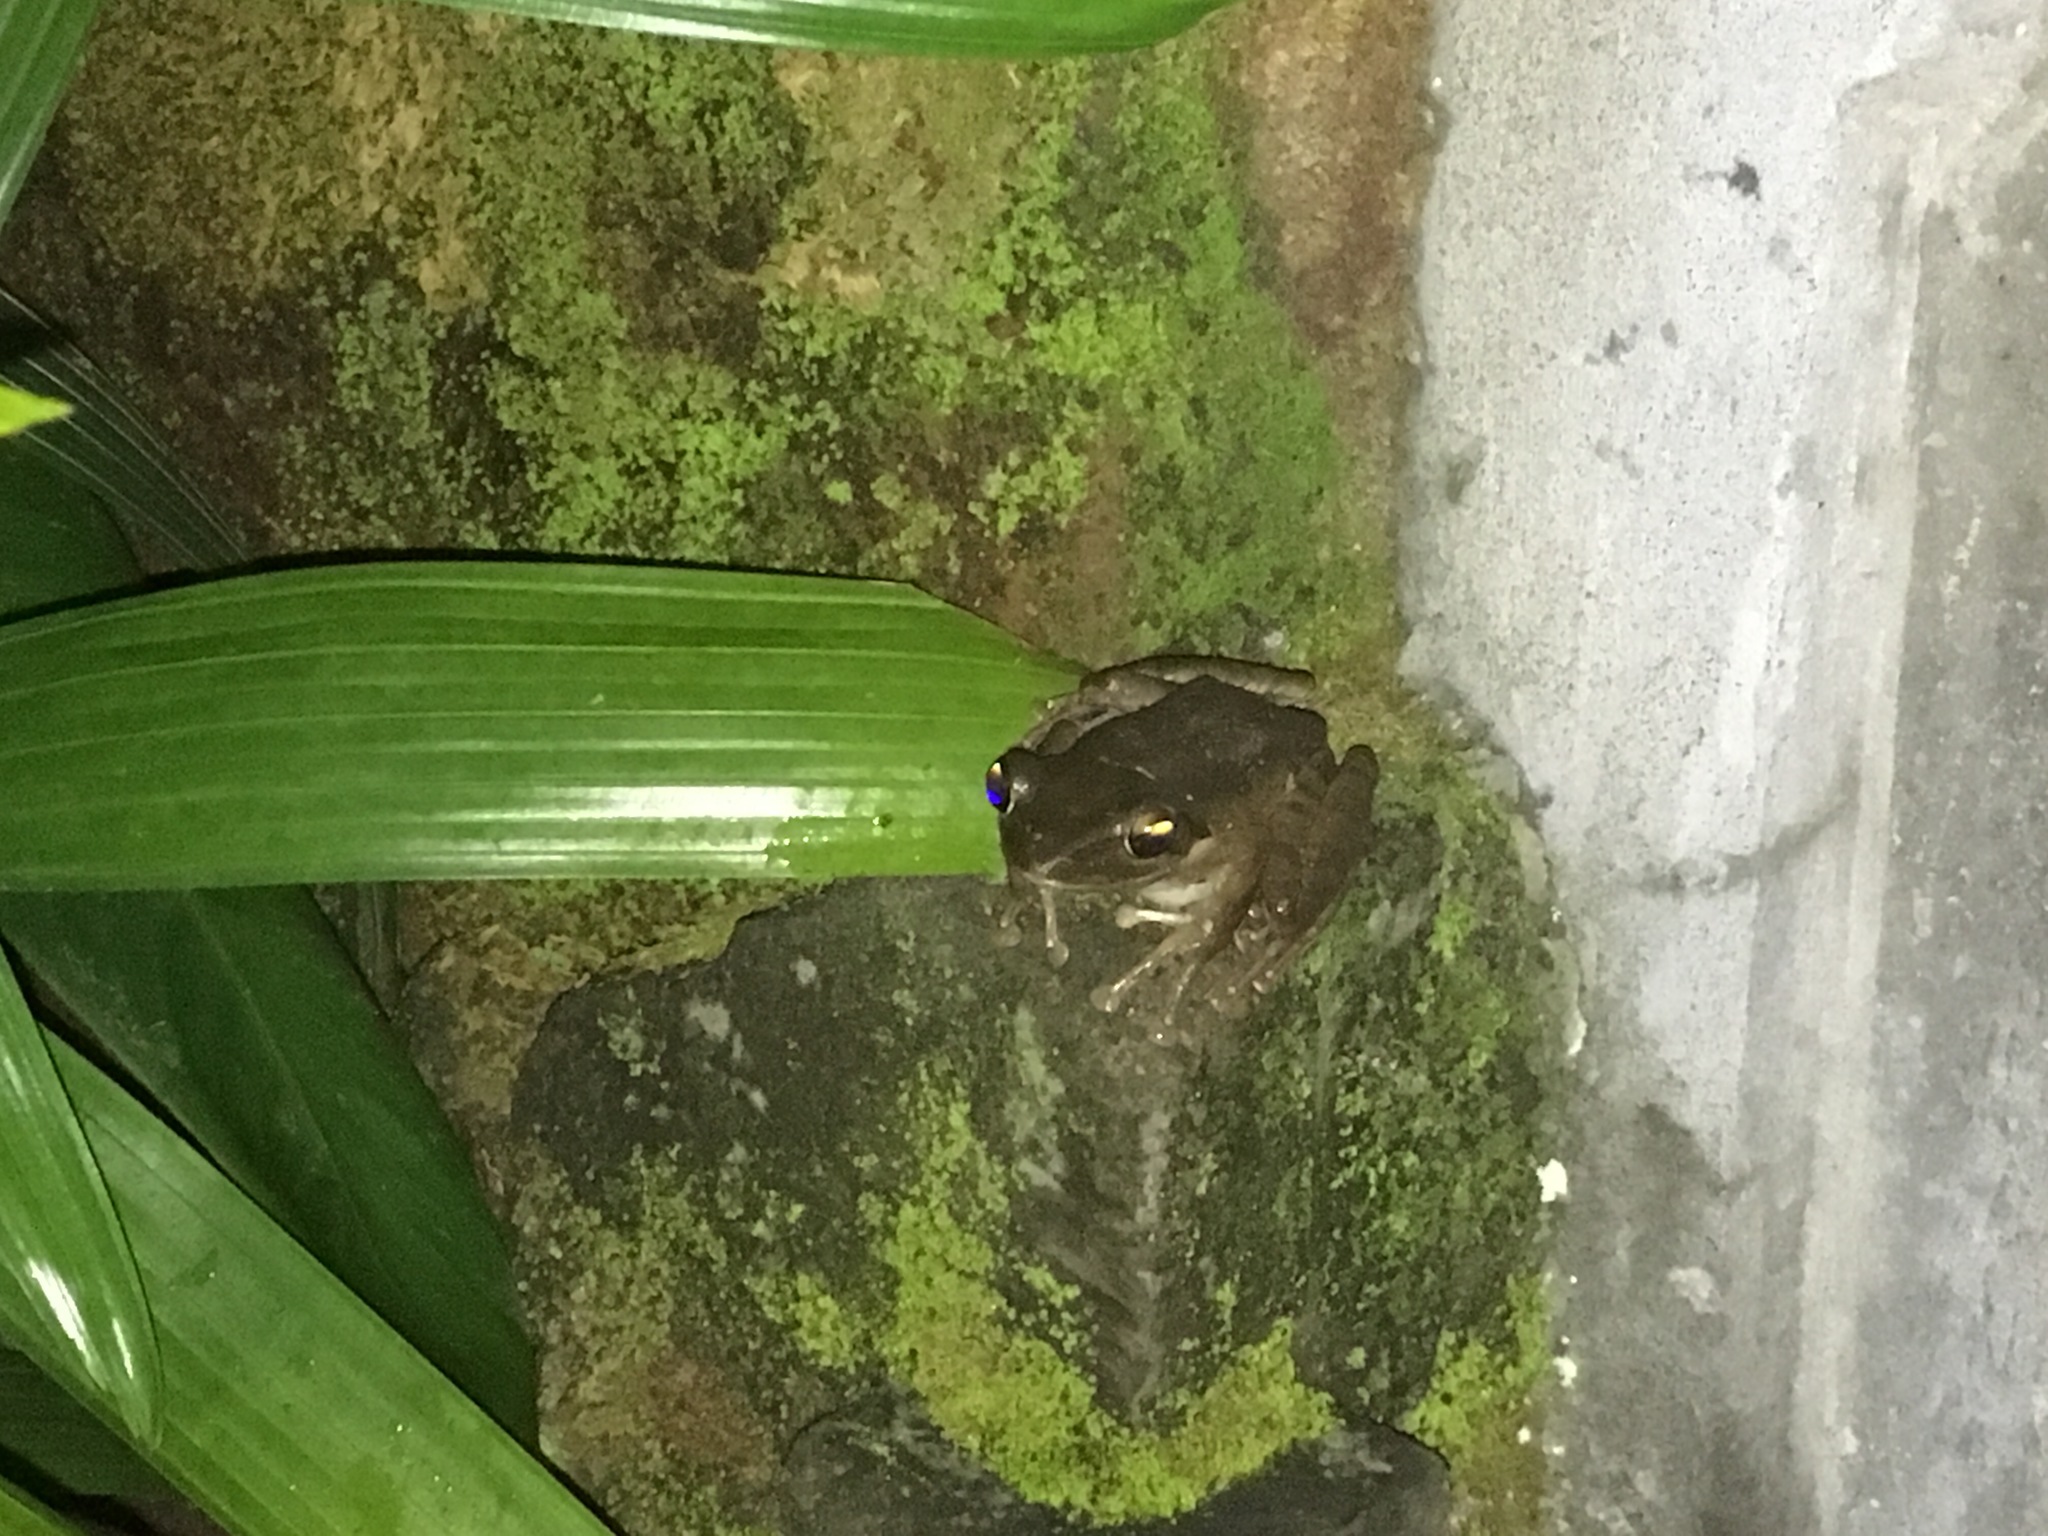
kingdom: Animalia
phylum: Chordata
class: Amphibia
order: Anura
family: Rhacophoridae
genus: Polypedates
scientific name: Polypedates leucomystax
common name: Common tree frog/four-lined tree frog
